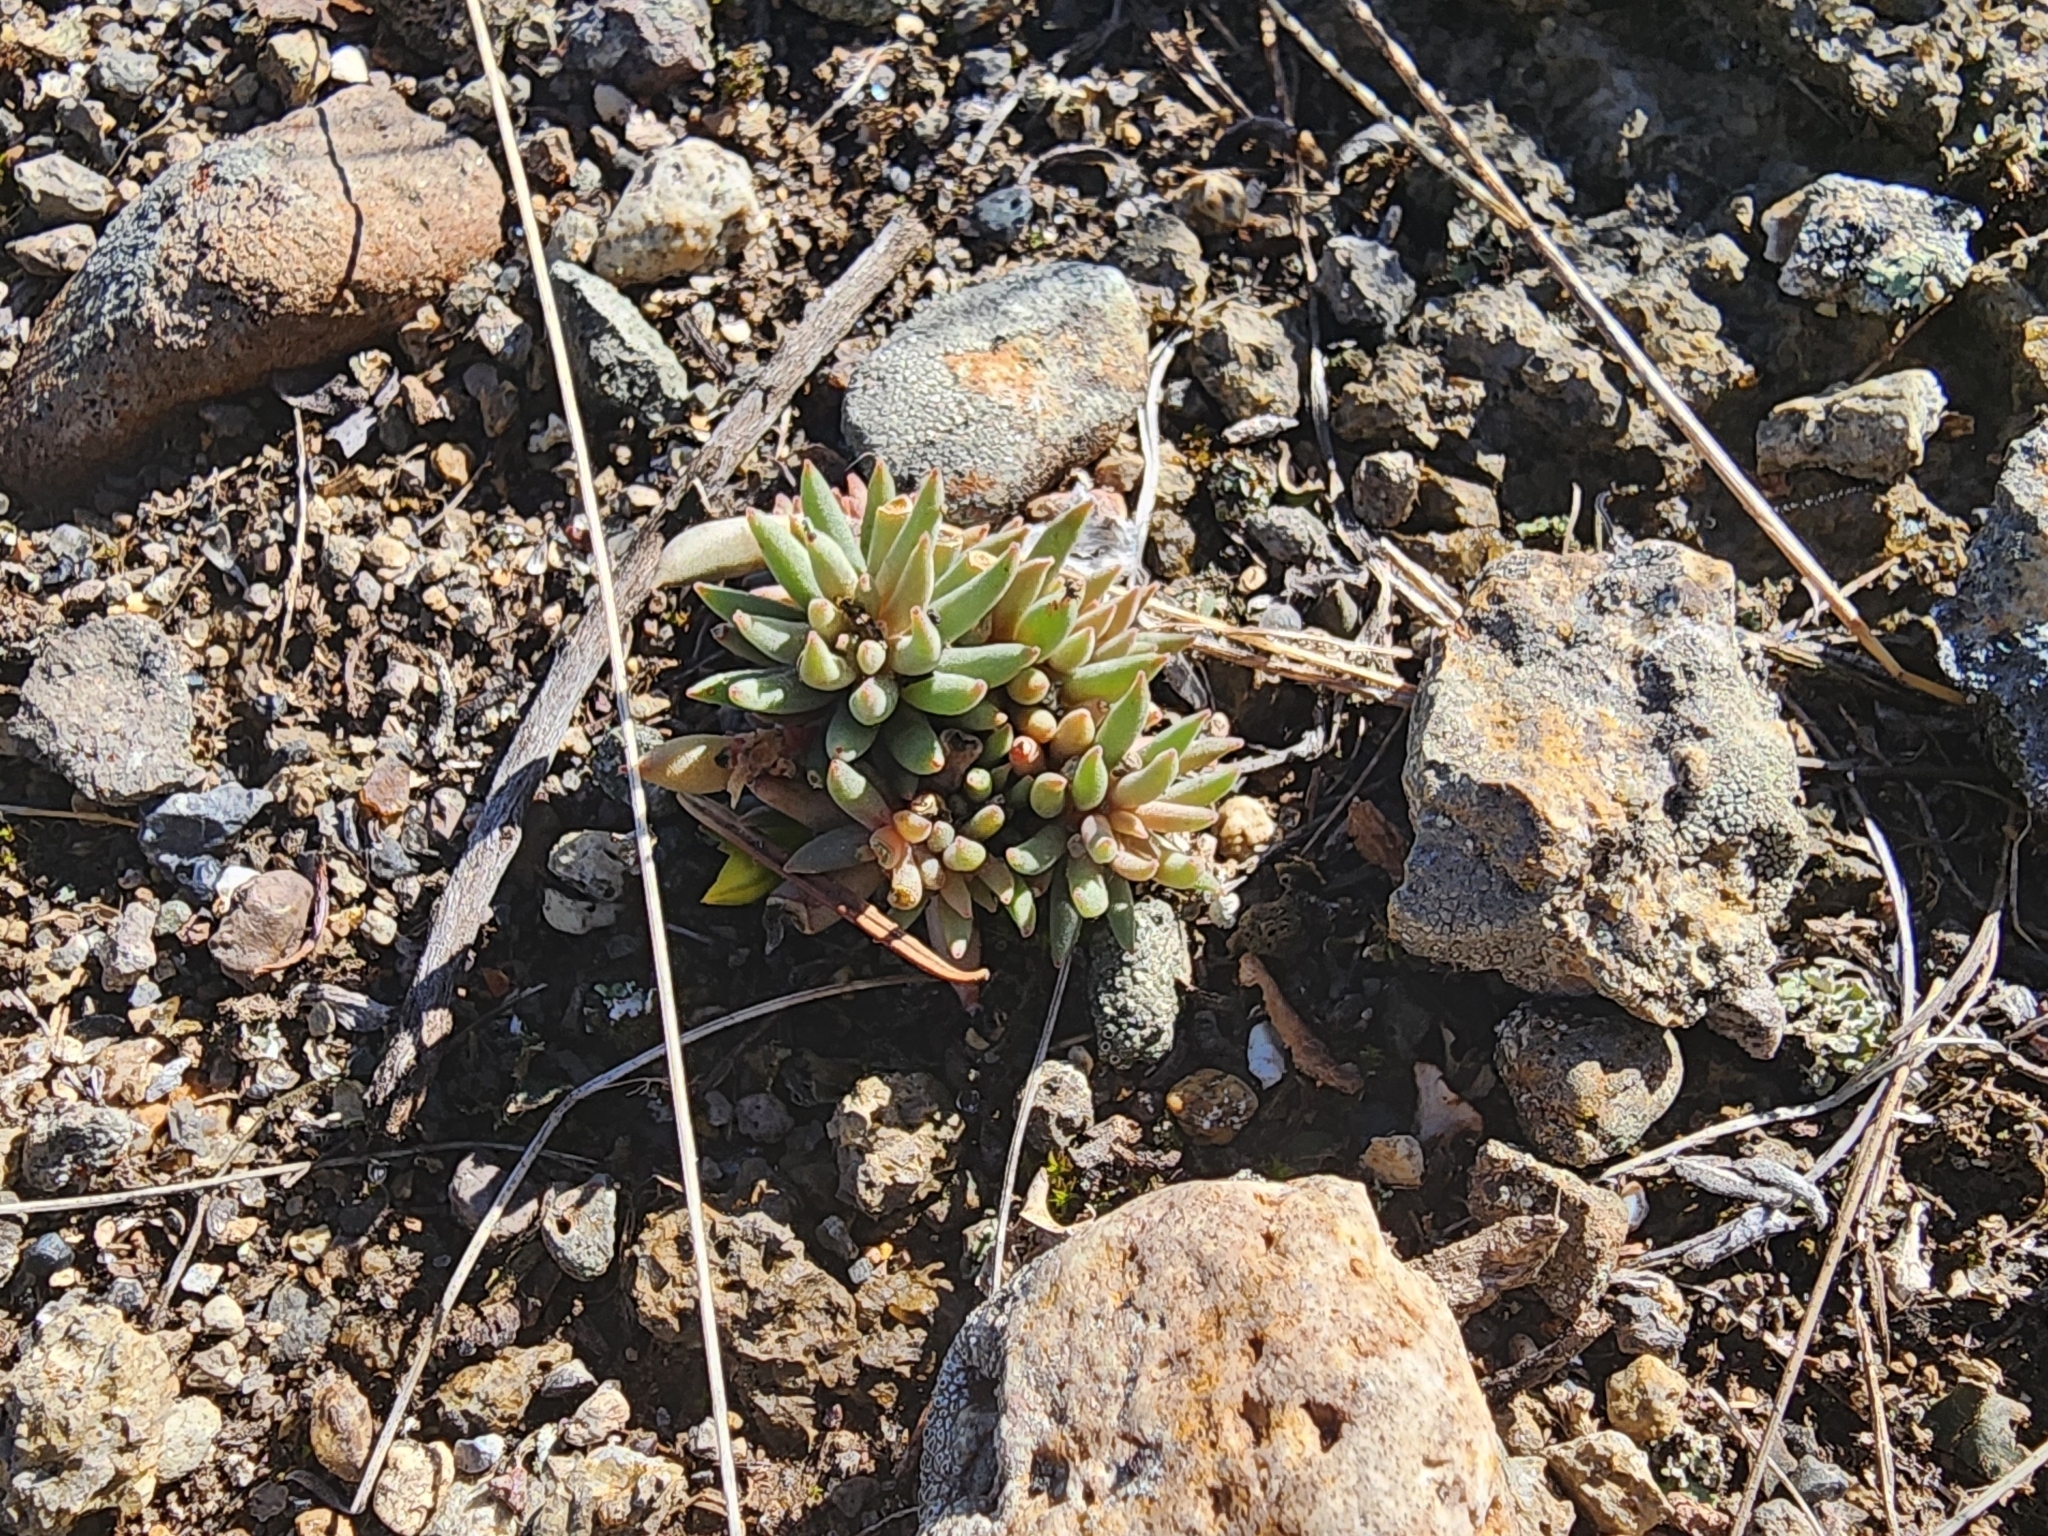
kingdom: Plantae
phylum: Tracheophyta
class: Magnoliopsida
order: Saxifragales
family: Crassulaceae
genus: Sedum
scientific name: Sedum lanceolatum
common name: Common stonecrop
